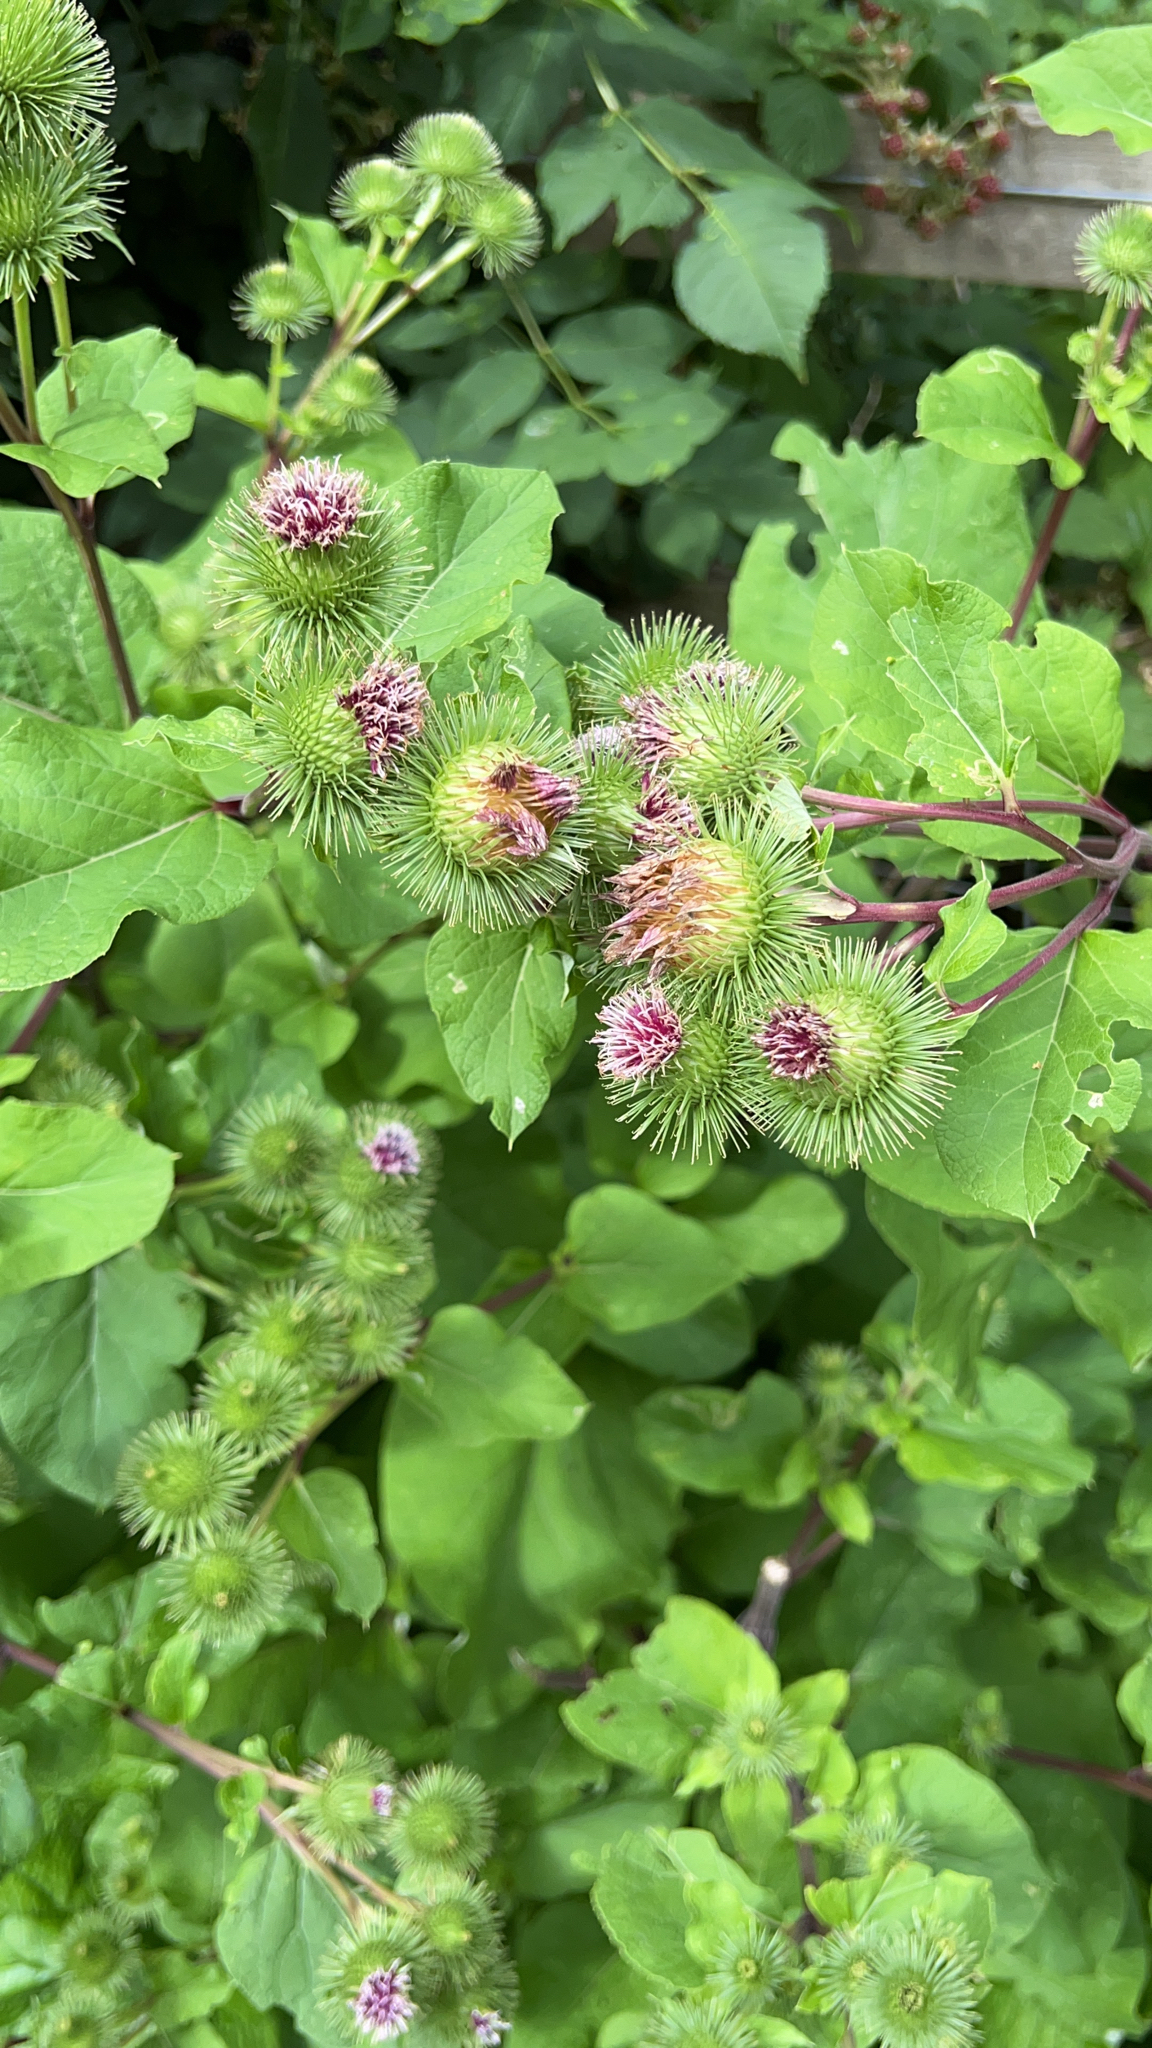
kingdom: Plantae
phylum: Tracheophyta
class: Magnoliopsida
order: Asterales
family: Asteraceae
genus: Arctium
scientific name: Arctium lappa
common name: Greater burdock
